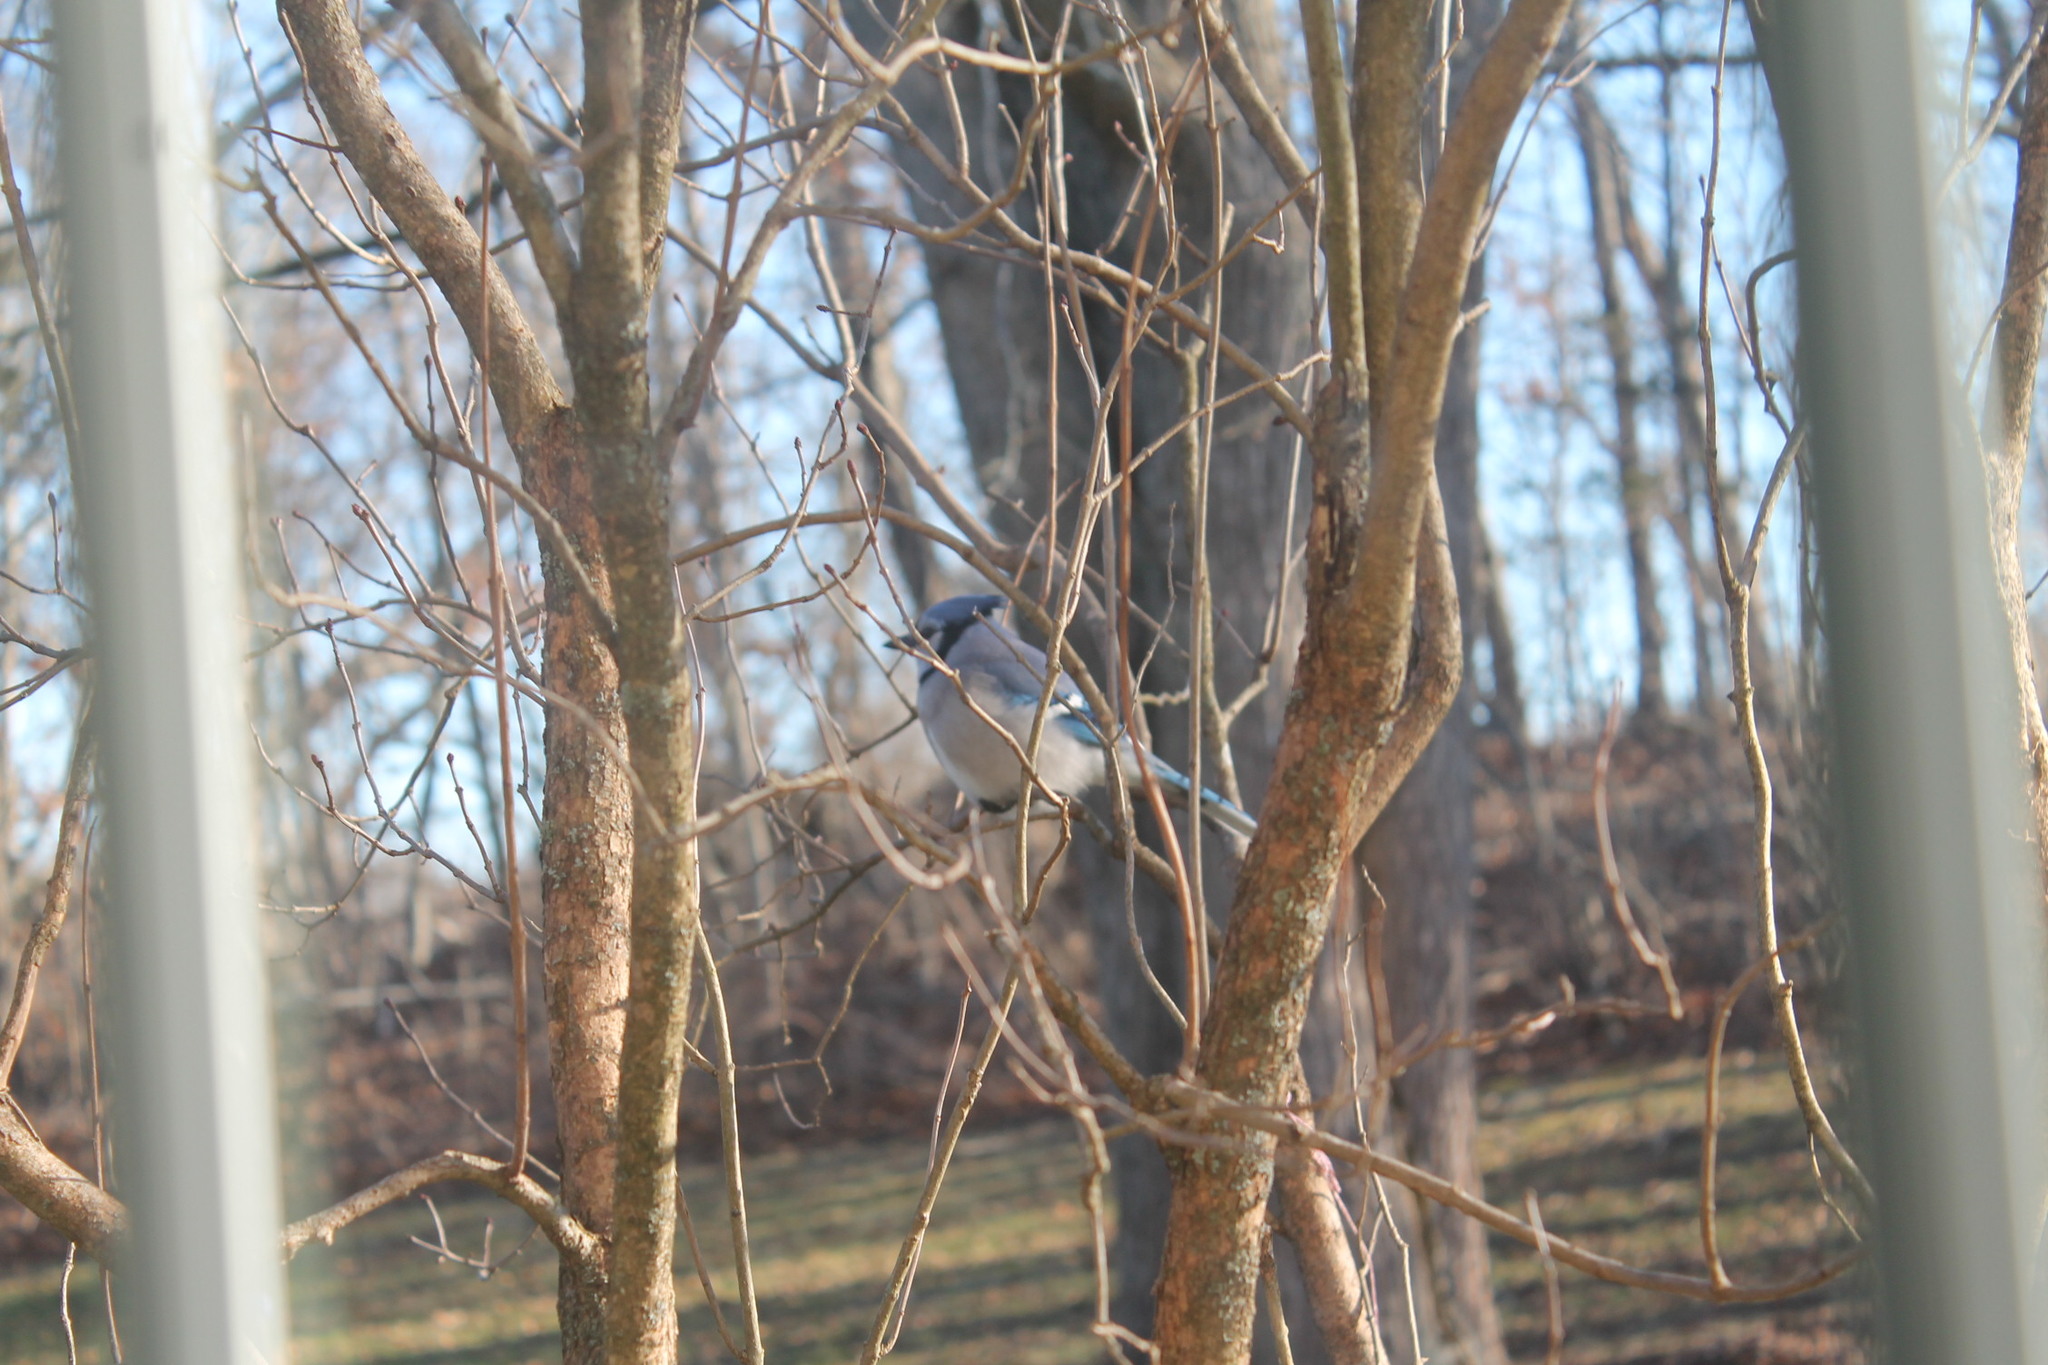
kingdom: Animalia
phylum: Chordata
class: Aves
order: Passeriformes
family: Corvidae
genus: Cyanocitta
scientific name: Cyanocitta cristata
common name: Blue jay
